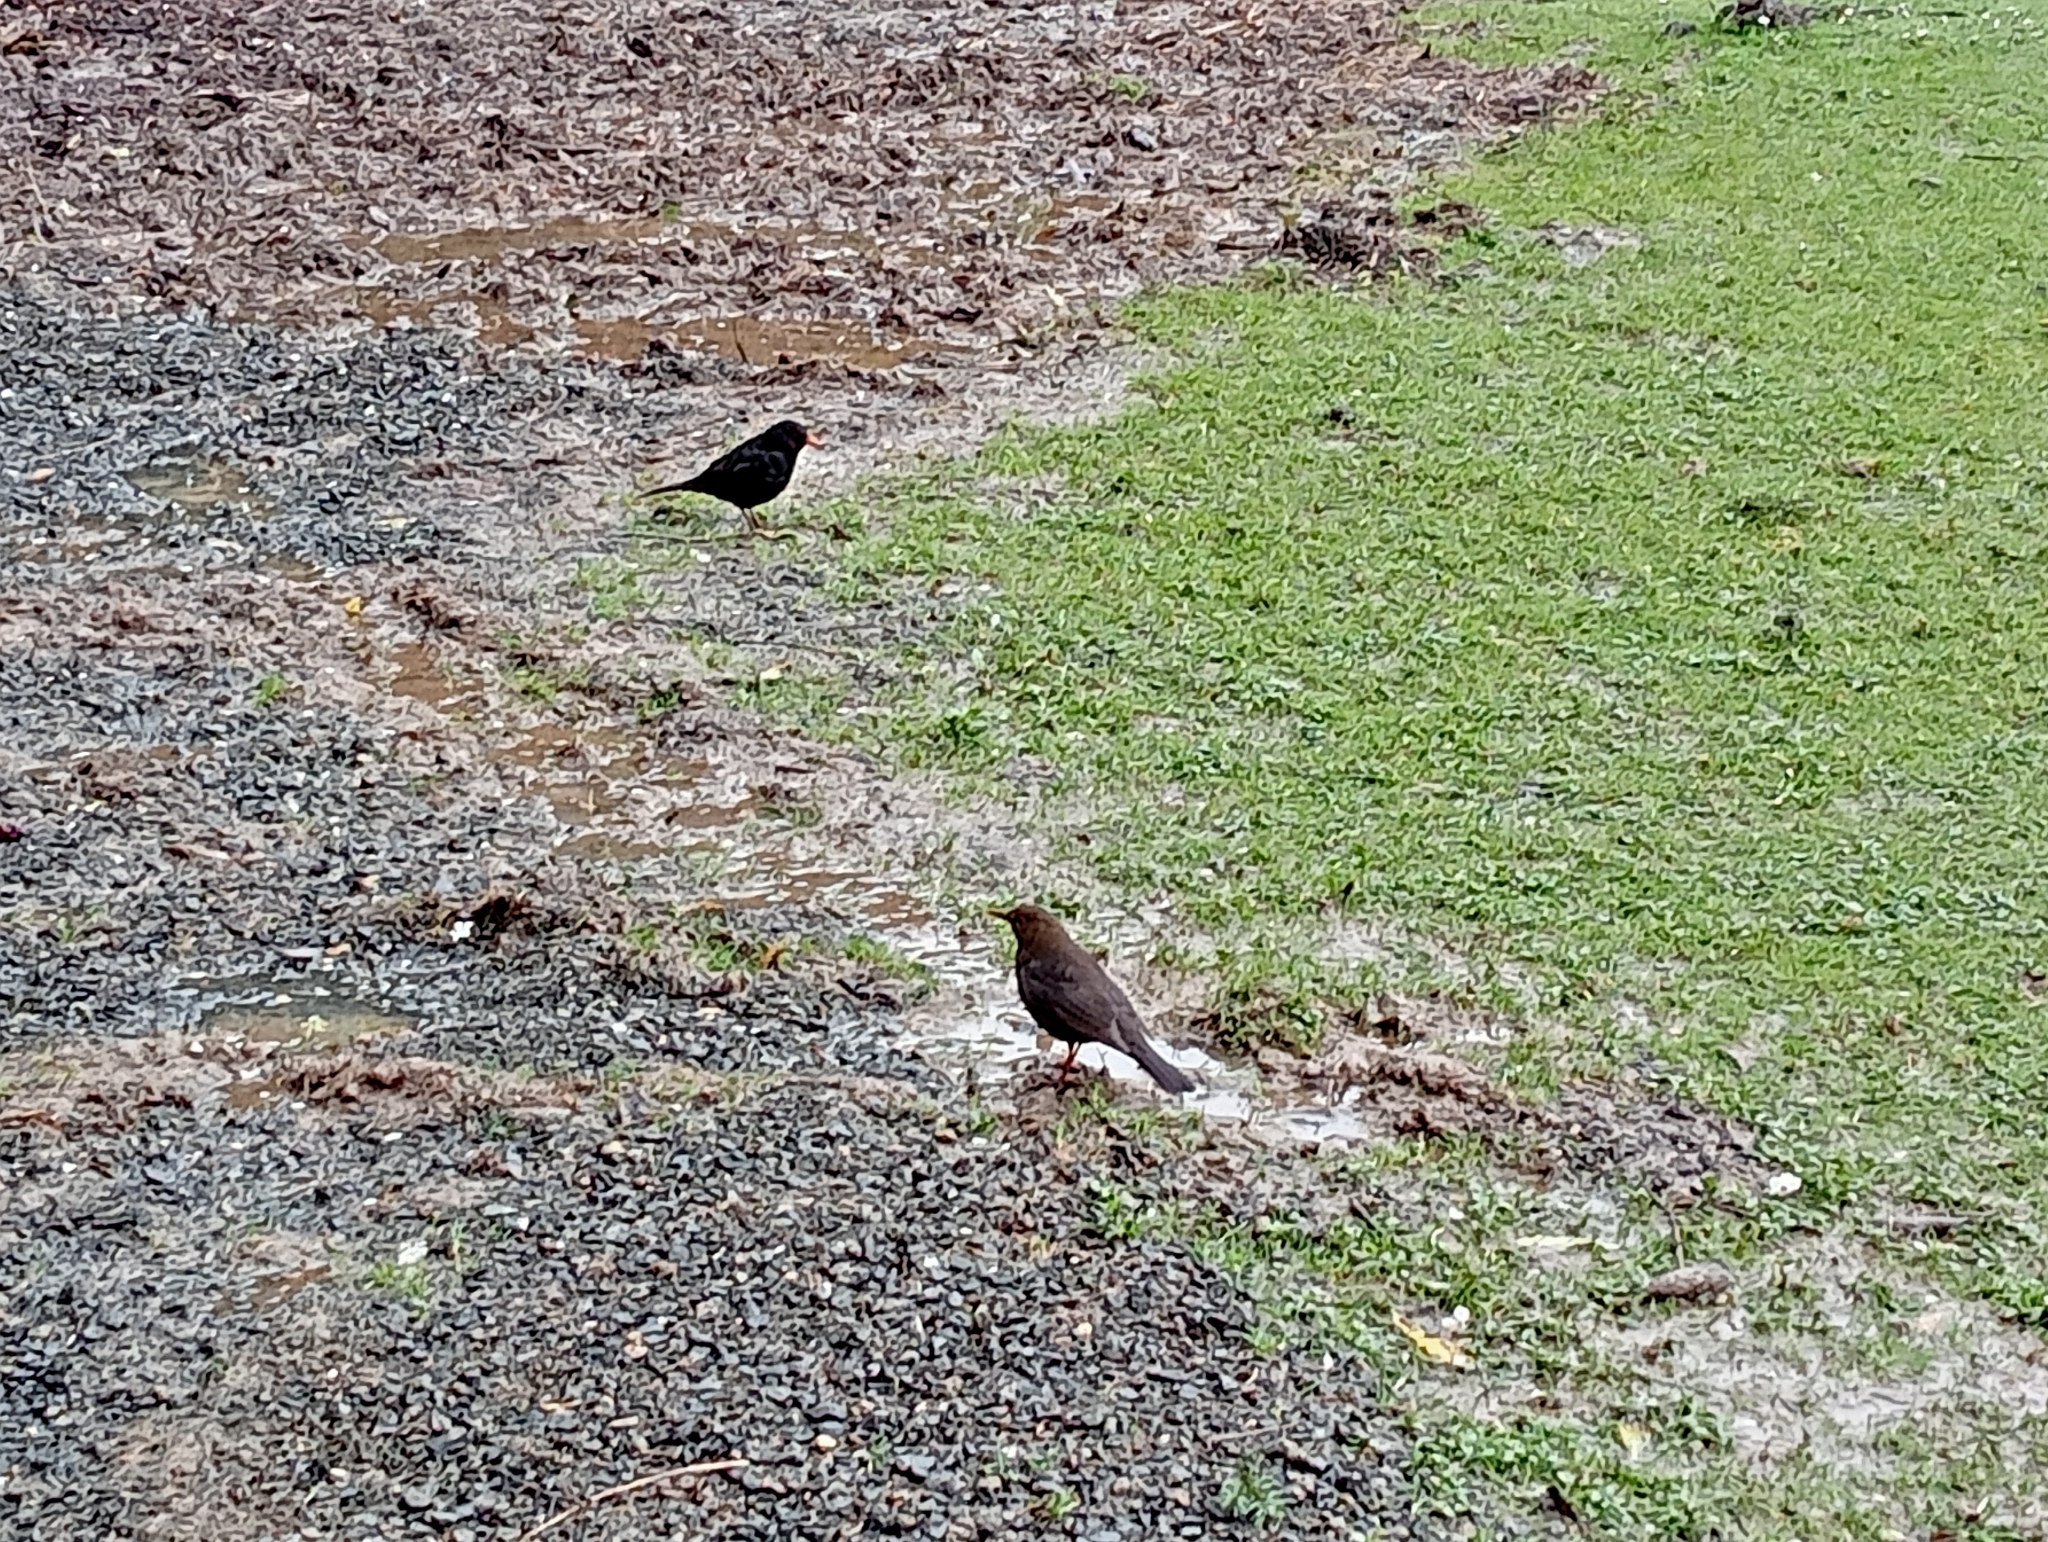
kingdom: Animalia
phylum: Chordata
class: Aves
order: Passeriformes
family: Turdidae
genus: Turdus
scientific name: Turdus merula
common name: Common blackbird
